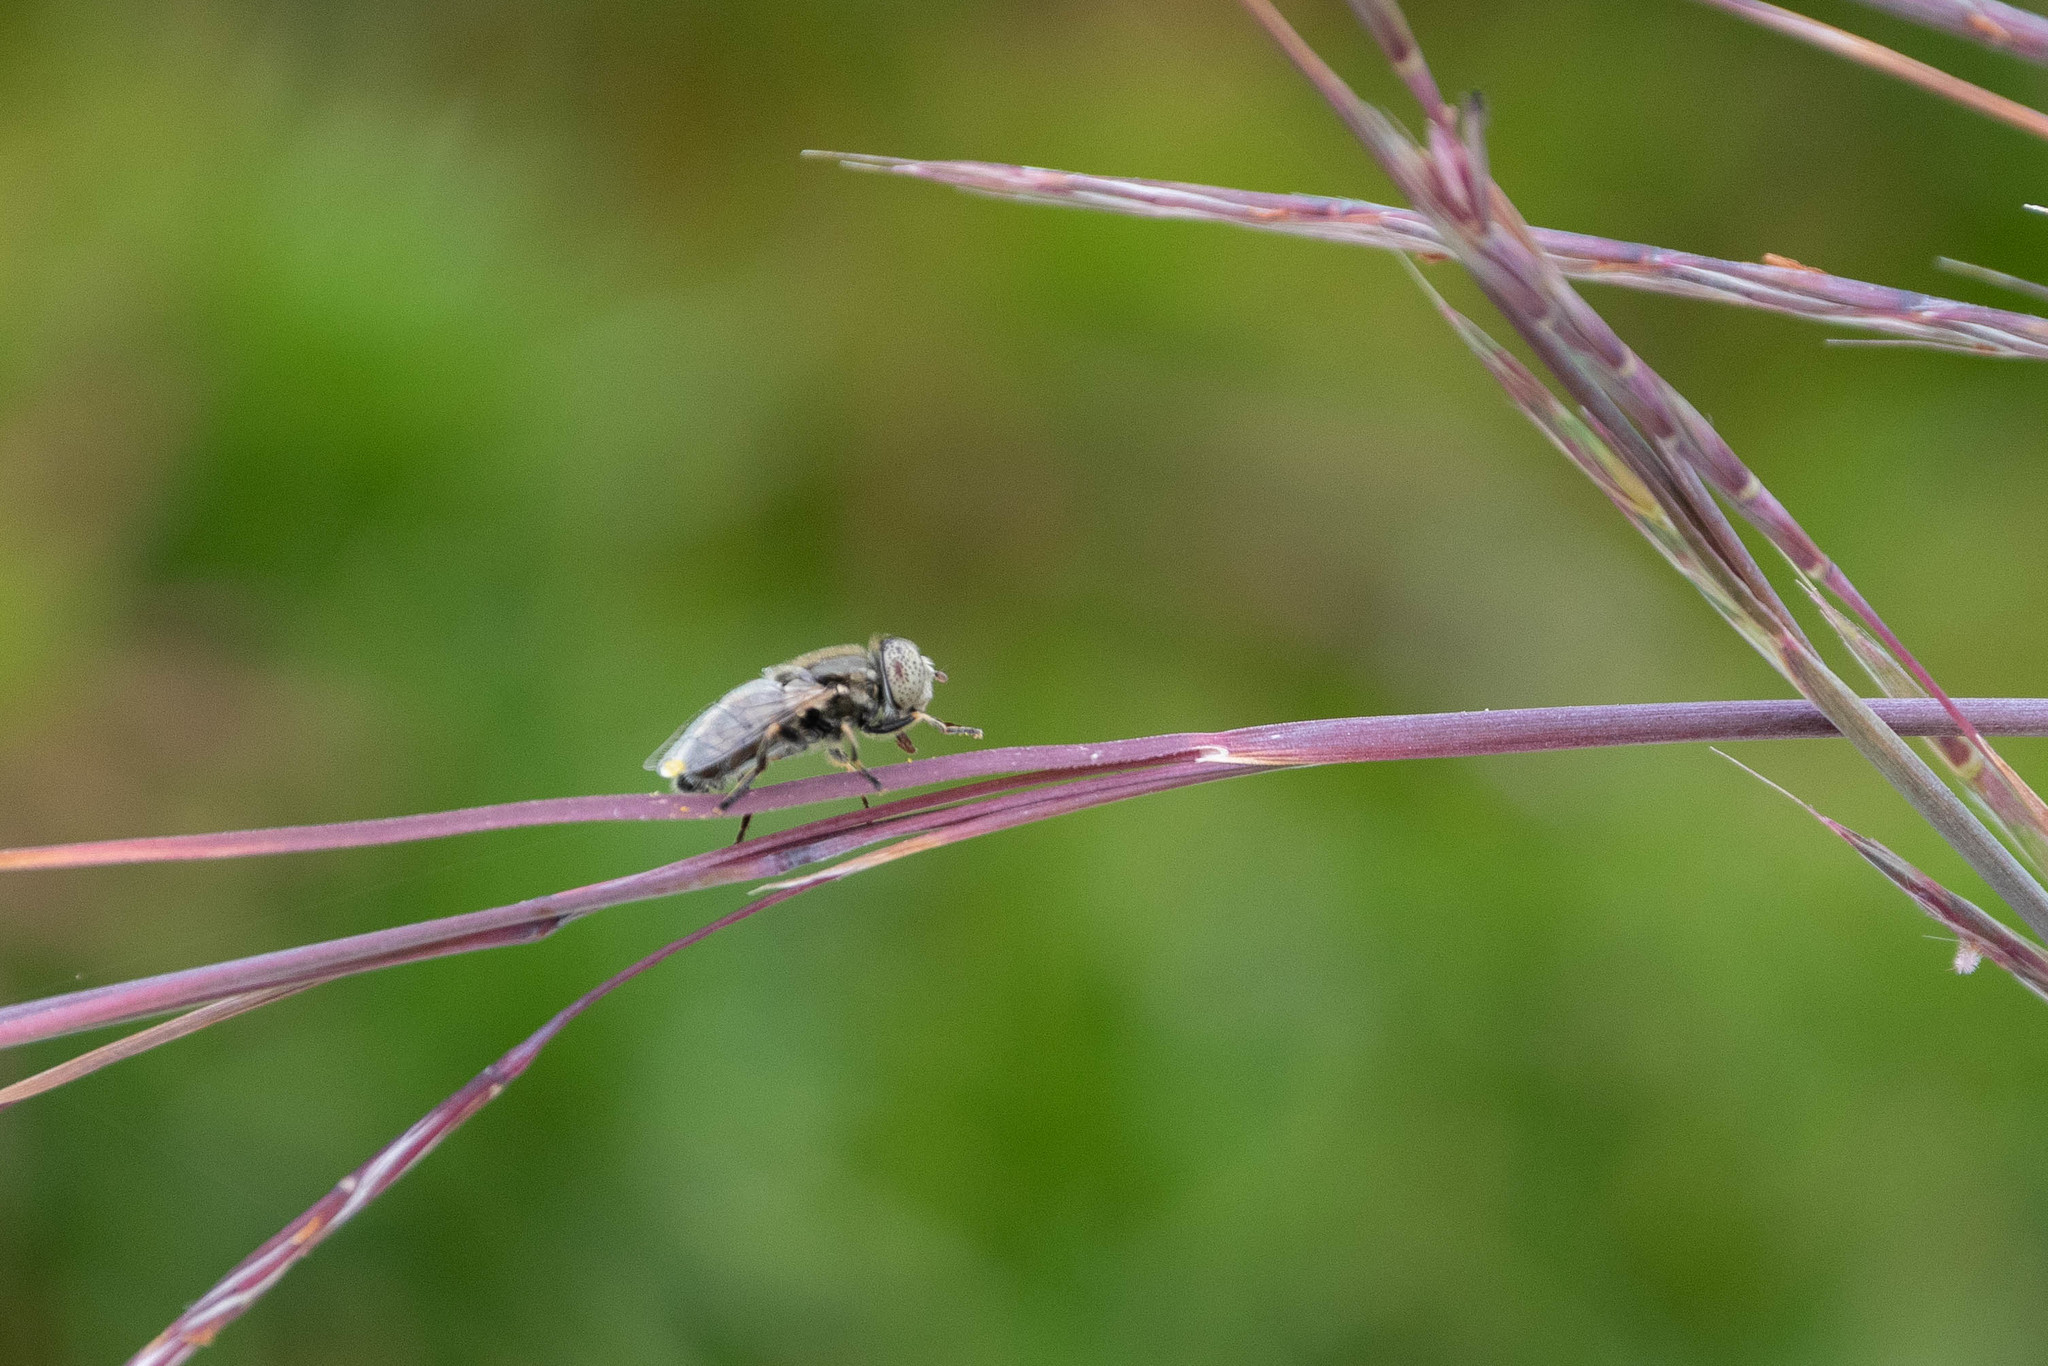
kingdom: Animalia
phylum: Arthropoda
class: Insecta
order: Diptera
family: Syrphidae
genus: Eristalinus
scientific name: Eristalinus aeneus
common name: Syrphid fly
